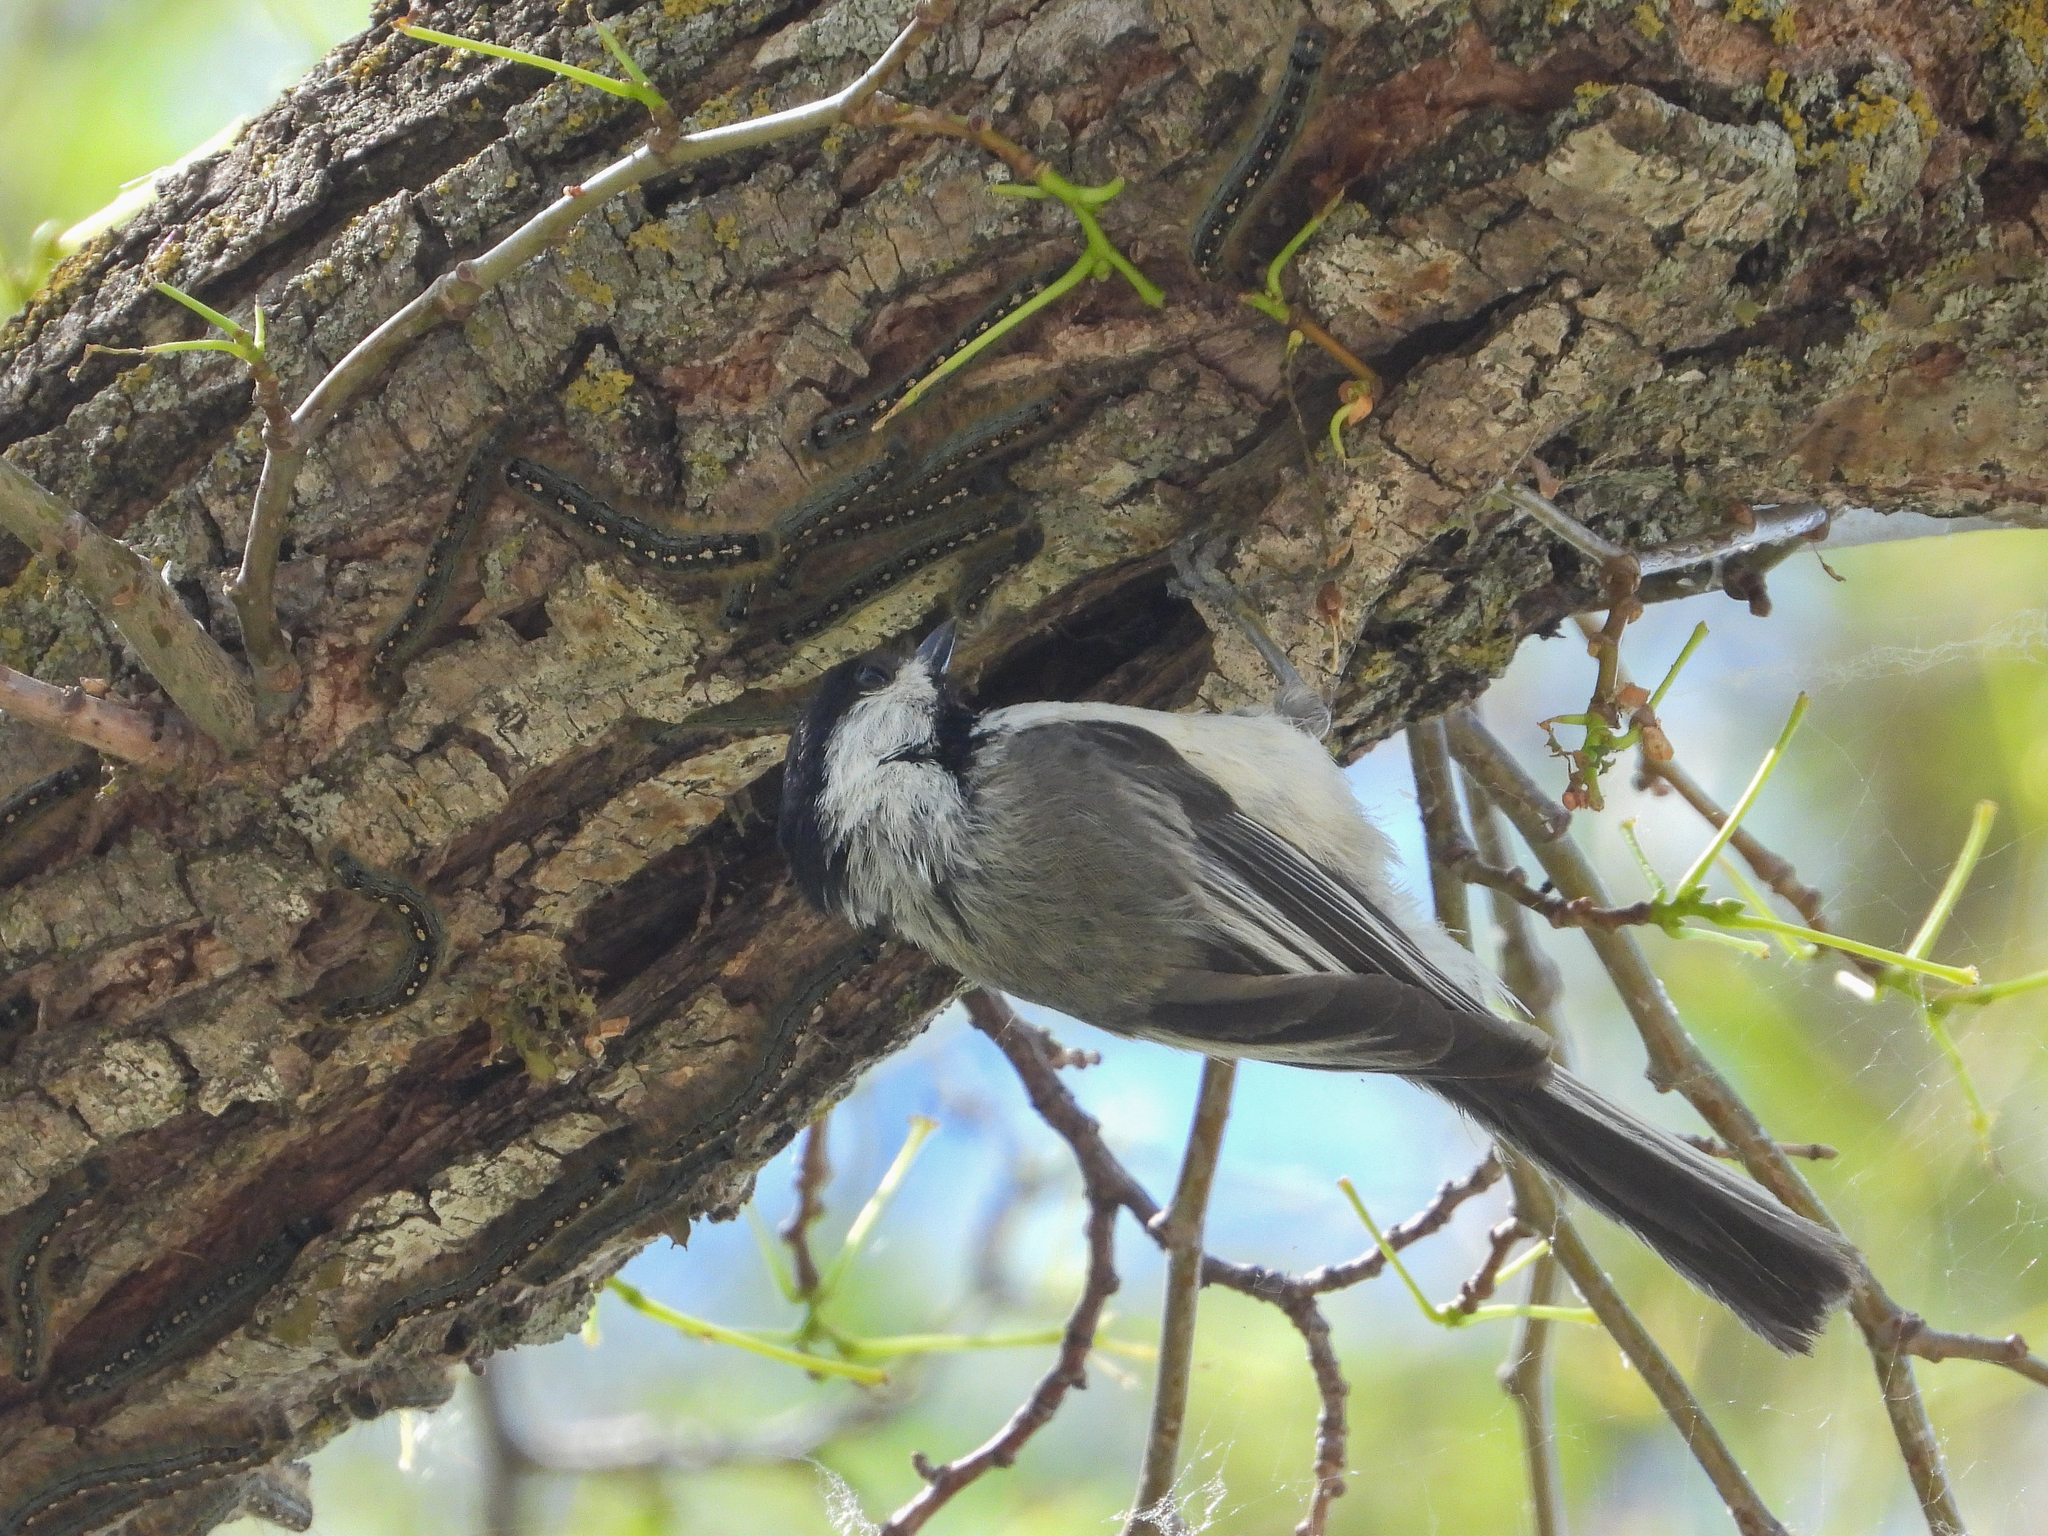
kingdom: Animalia
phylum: Chordata
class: Aves
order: Passeriformes
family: Paridae
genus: Poecile
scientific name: Poecile atricapillus
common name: Black-capped chickadee
